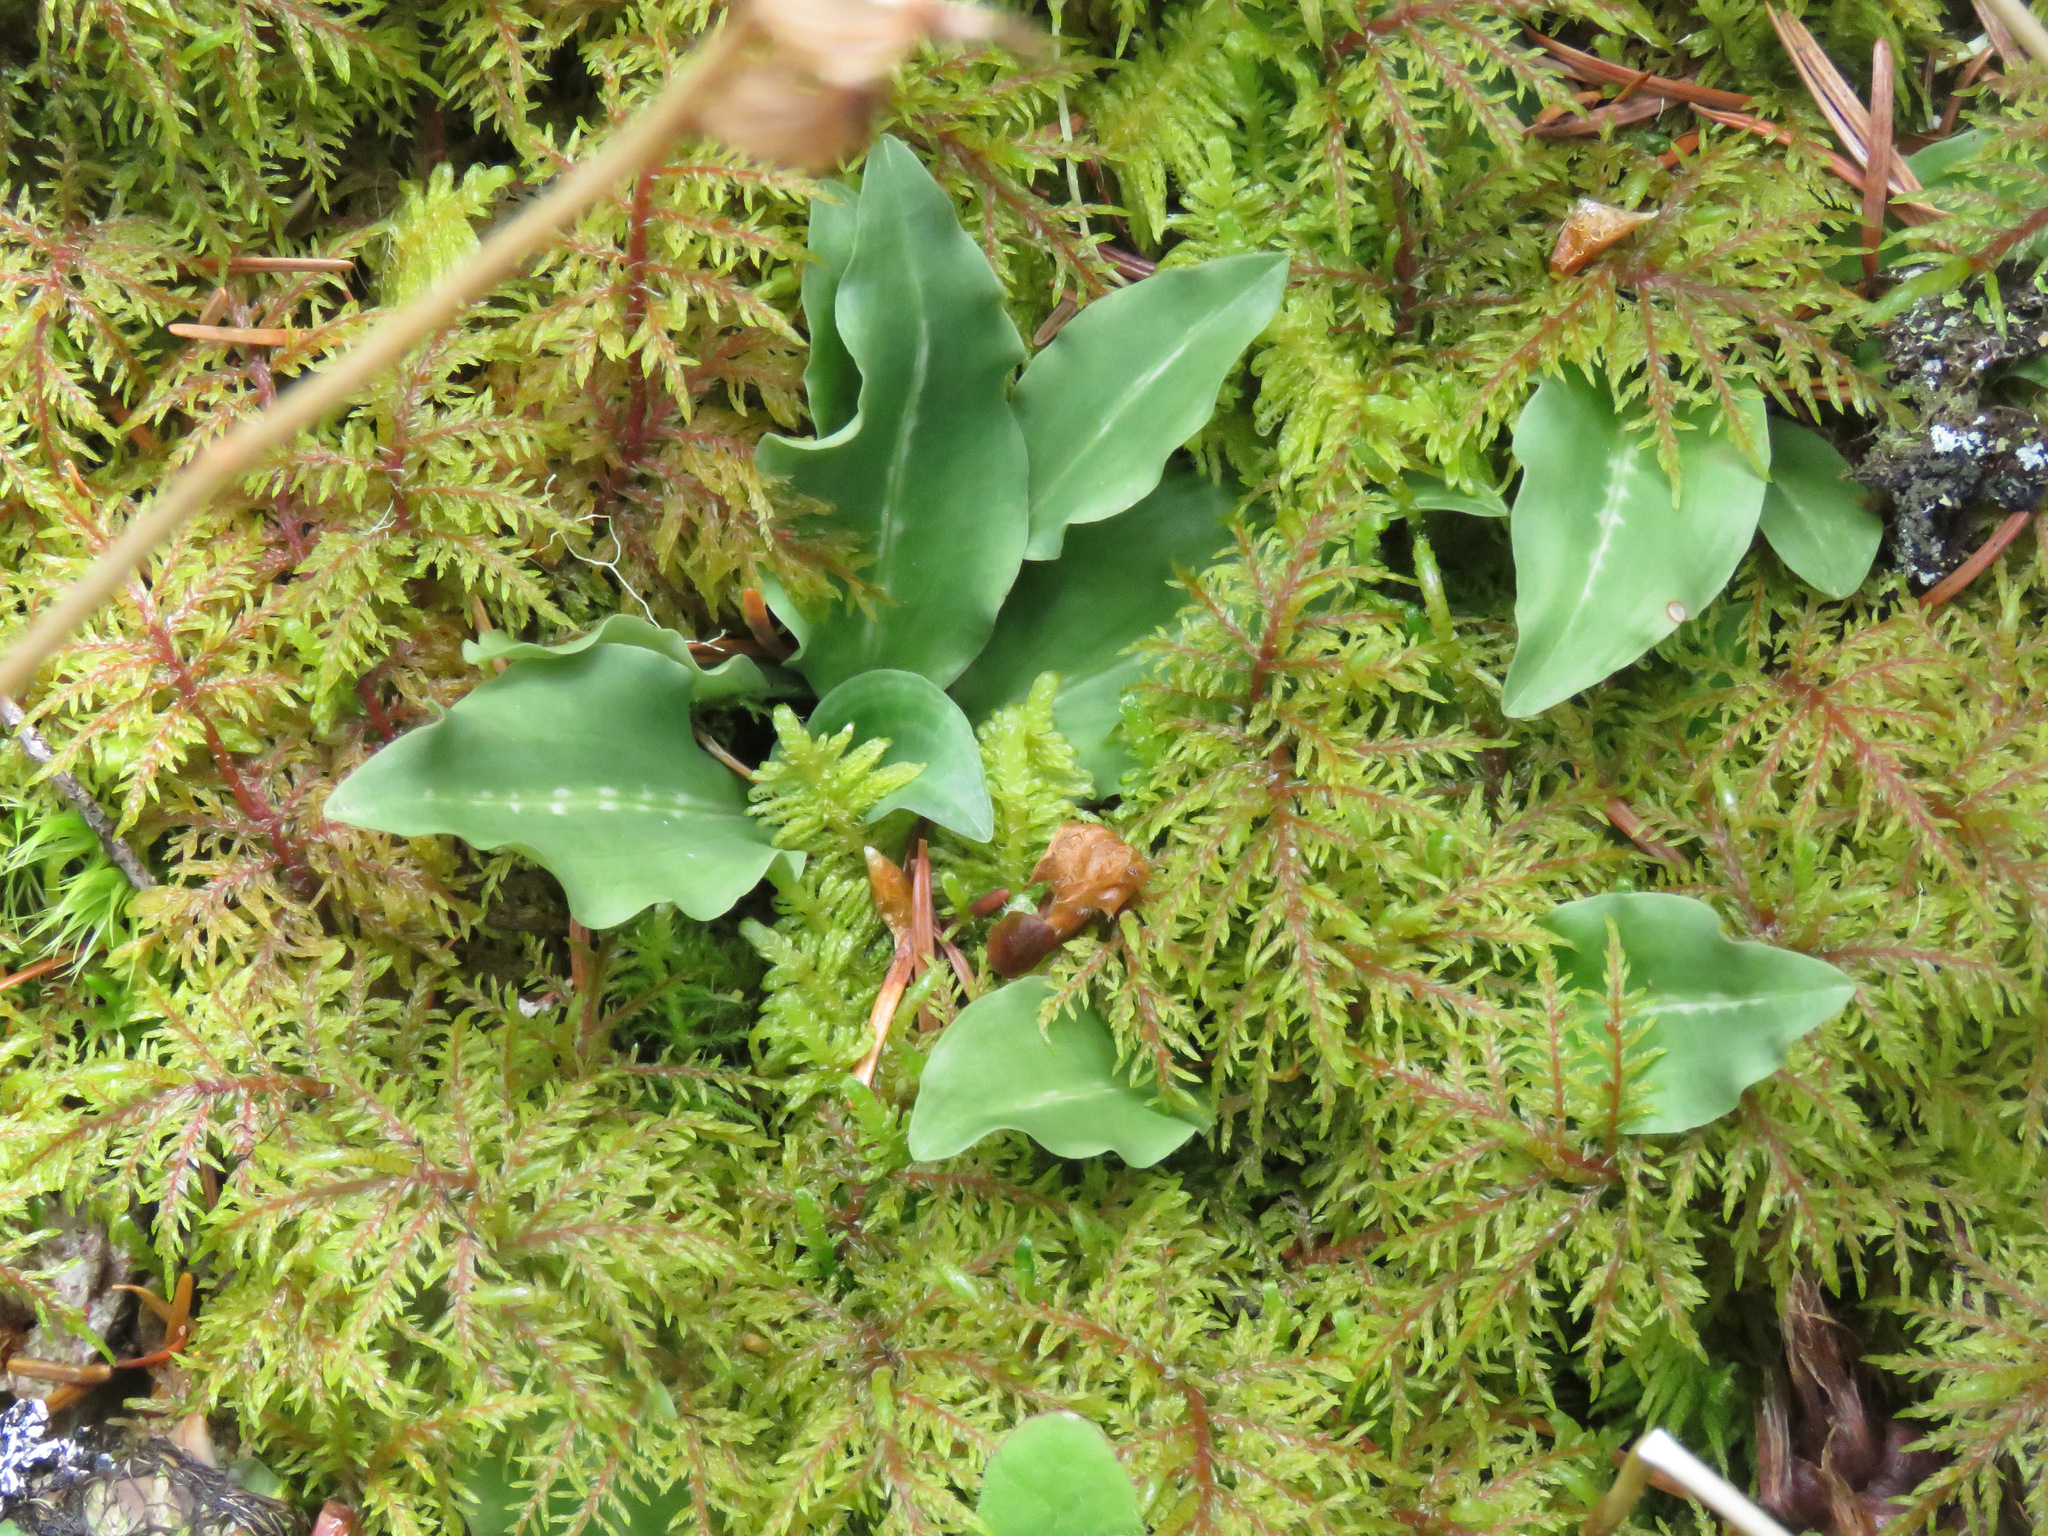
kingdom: Plantae
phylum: Tracheophyta
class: Liliopsida
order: Asparagales
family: Orchidaceae
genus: Goodyera
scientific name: Goodyera oblongifolia
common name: Giant rattlesnake-plantain
